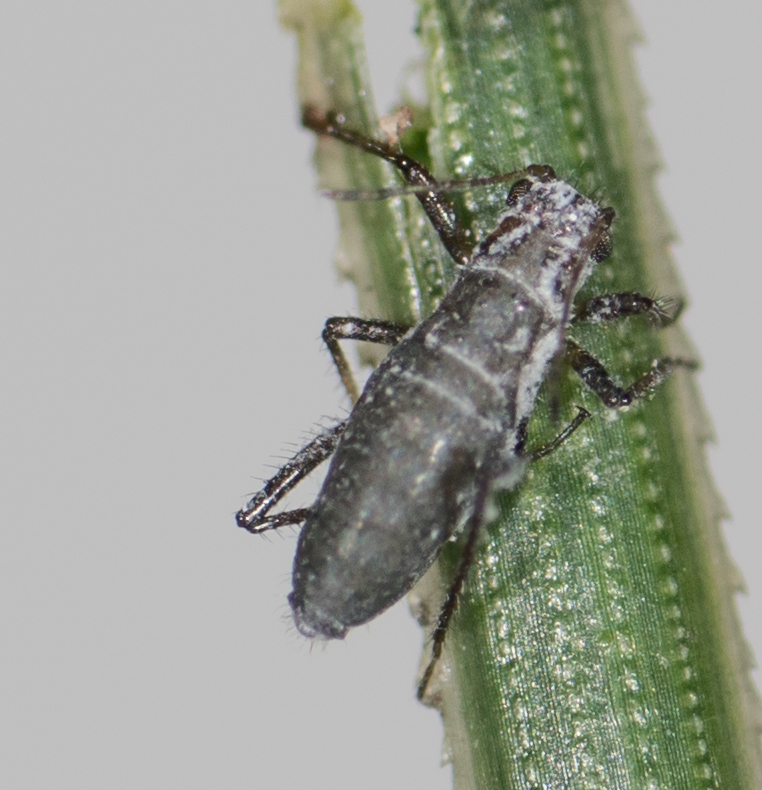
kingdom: Animalia
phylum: Arthropoda
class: Insecta
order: Hemiptera
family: Aphididae
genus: Eulachnus
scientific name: Eulachnus rileyi
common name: Active gray pine needle aphid
